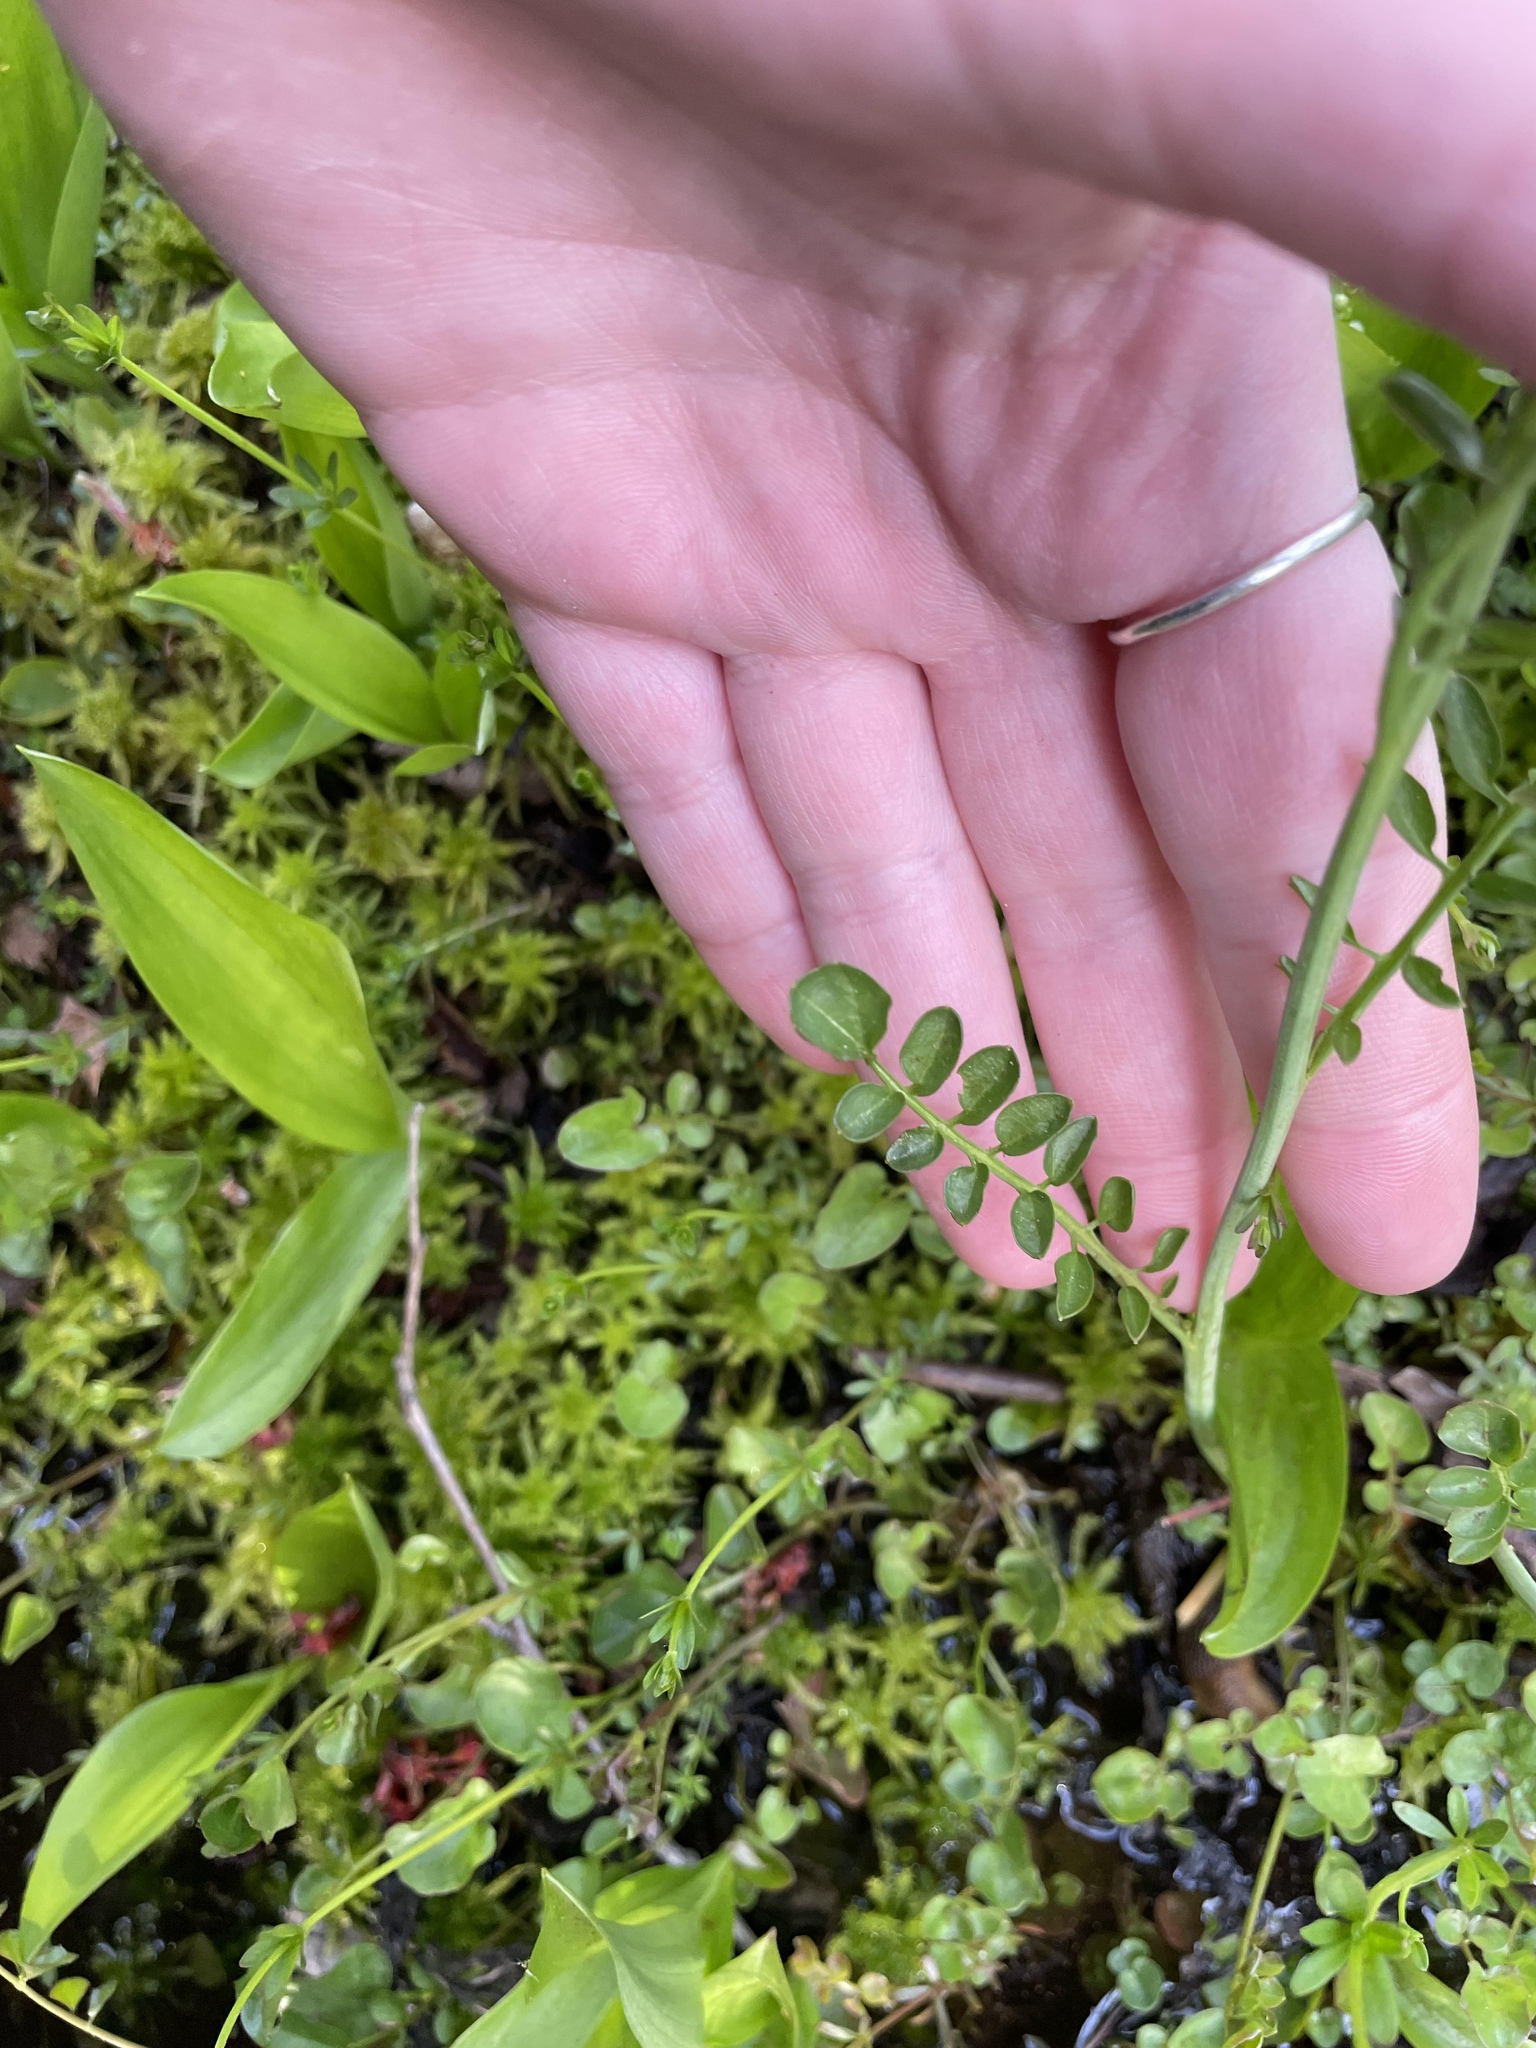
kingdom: Plantae
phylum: Tracheophyta
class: Magnoliopsida
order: Brassicales
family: Brassicaceae
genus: Cardamine
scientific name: Cardamine pratensis
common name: Cuckoo flower
